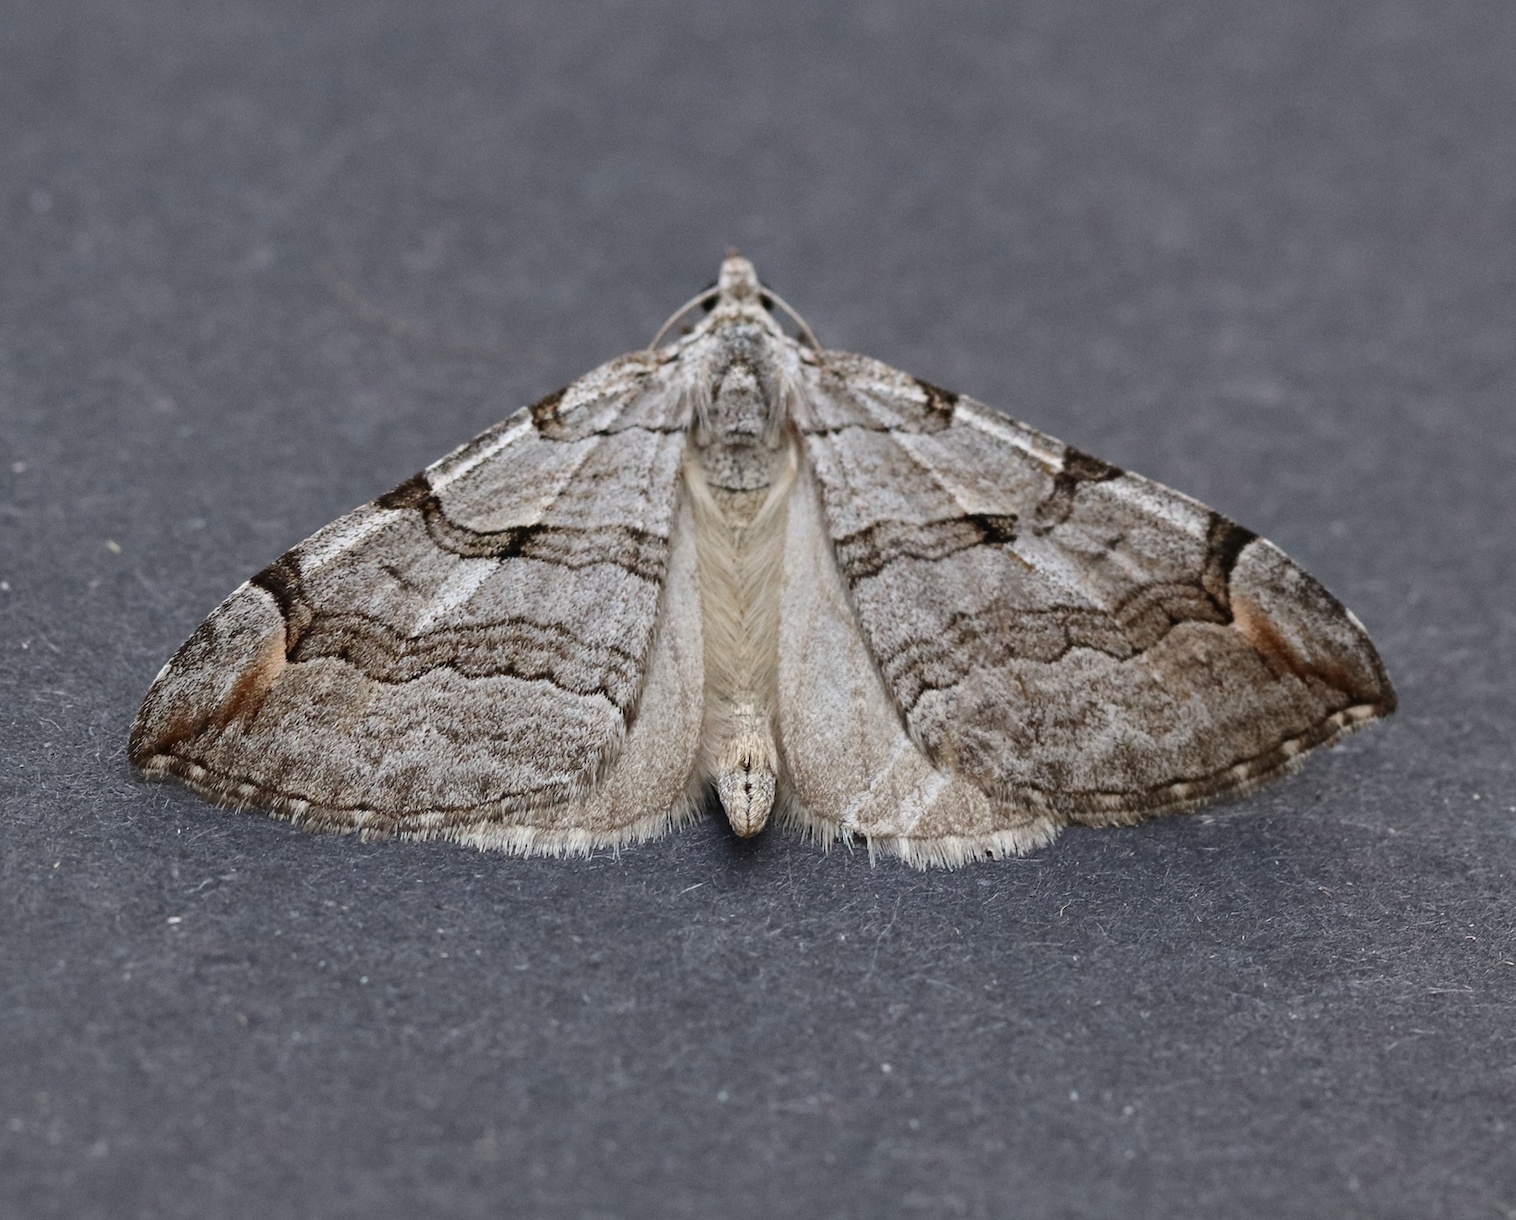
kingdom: Animalia
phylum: Arthropoda
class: Insecta
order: Lepidoptera
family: Geometridae
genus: Aplocera
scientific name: Aplocera plagiata
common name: Treble-bar
